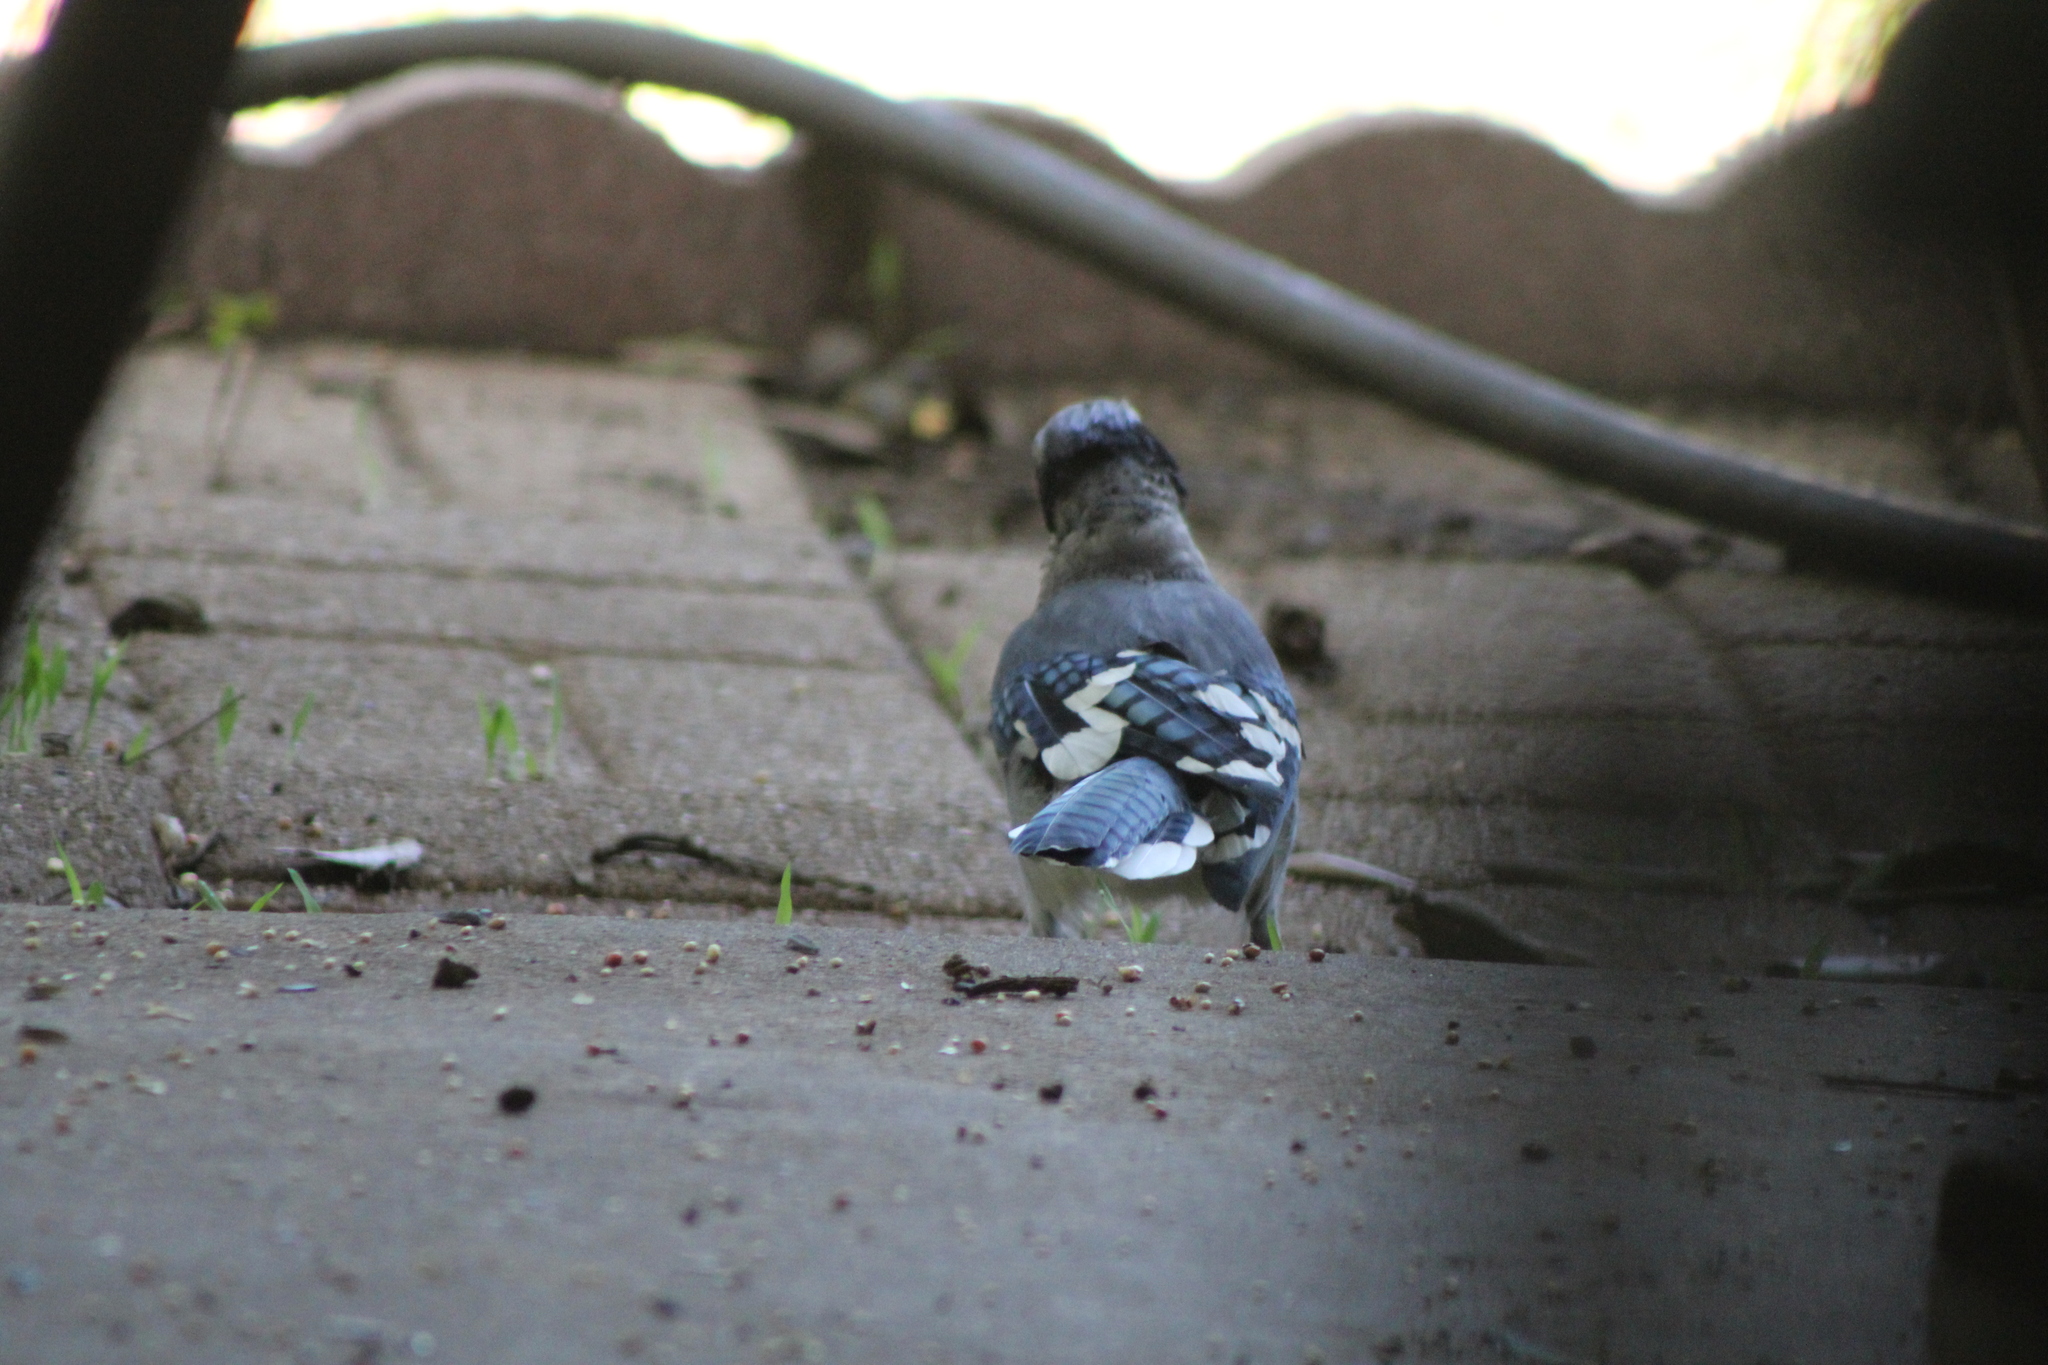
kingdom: Animalia
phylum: Chordata
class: Aves
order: Passeriformes
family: Corvidae
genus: Cyanocitta
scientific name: Cyanocitta cristata
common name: Blue jay
